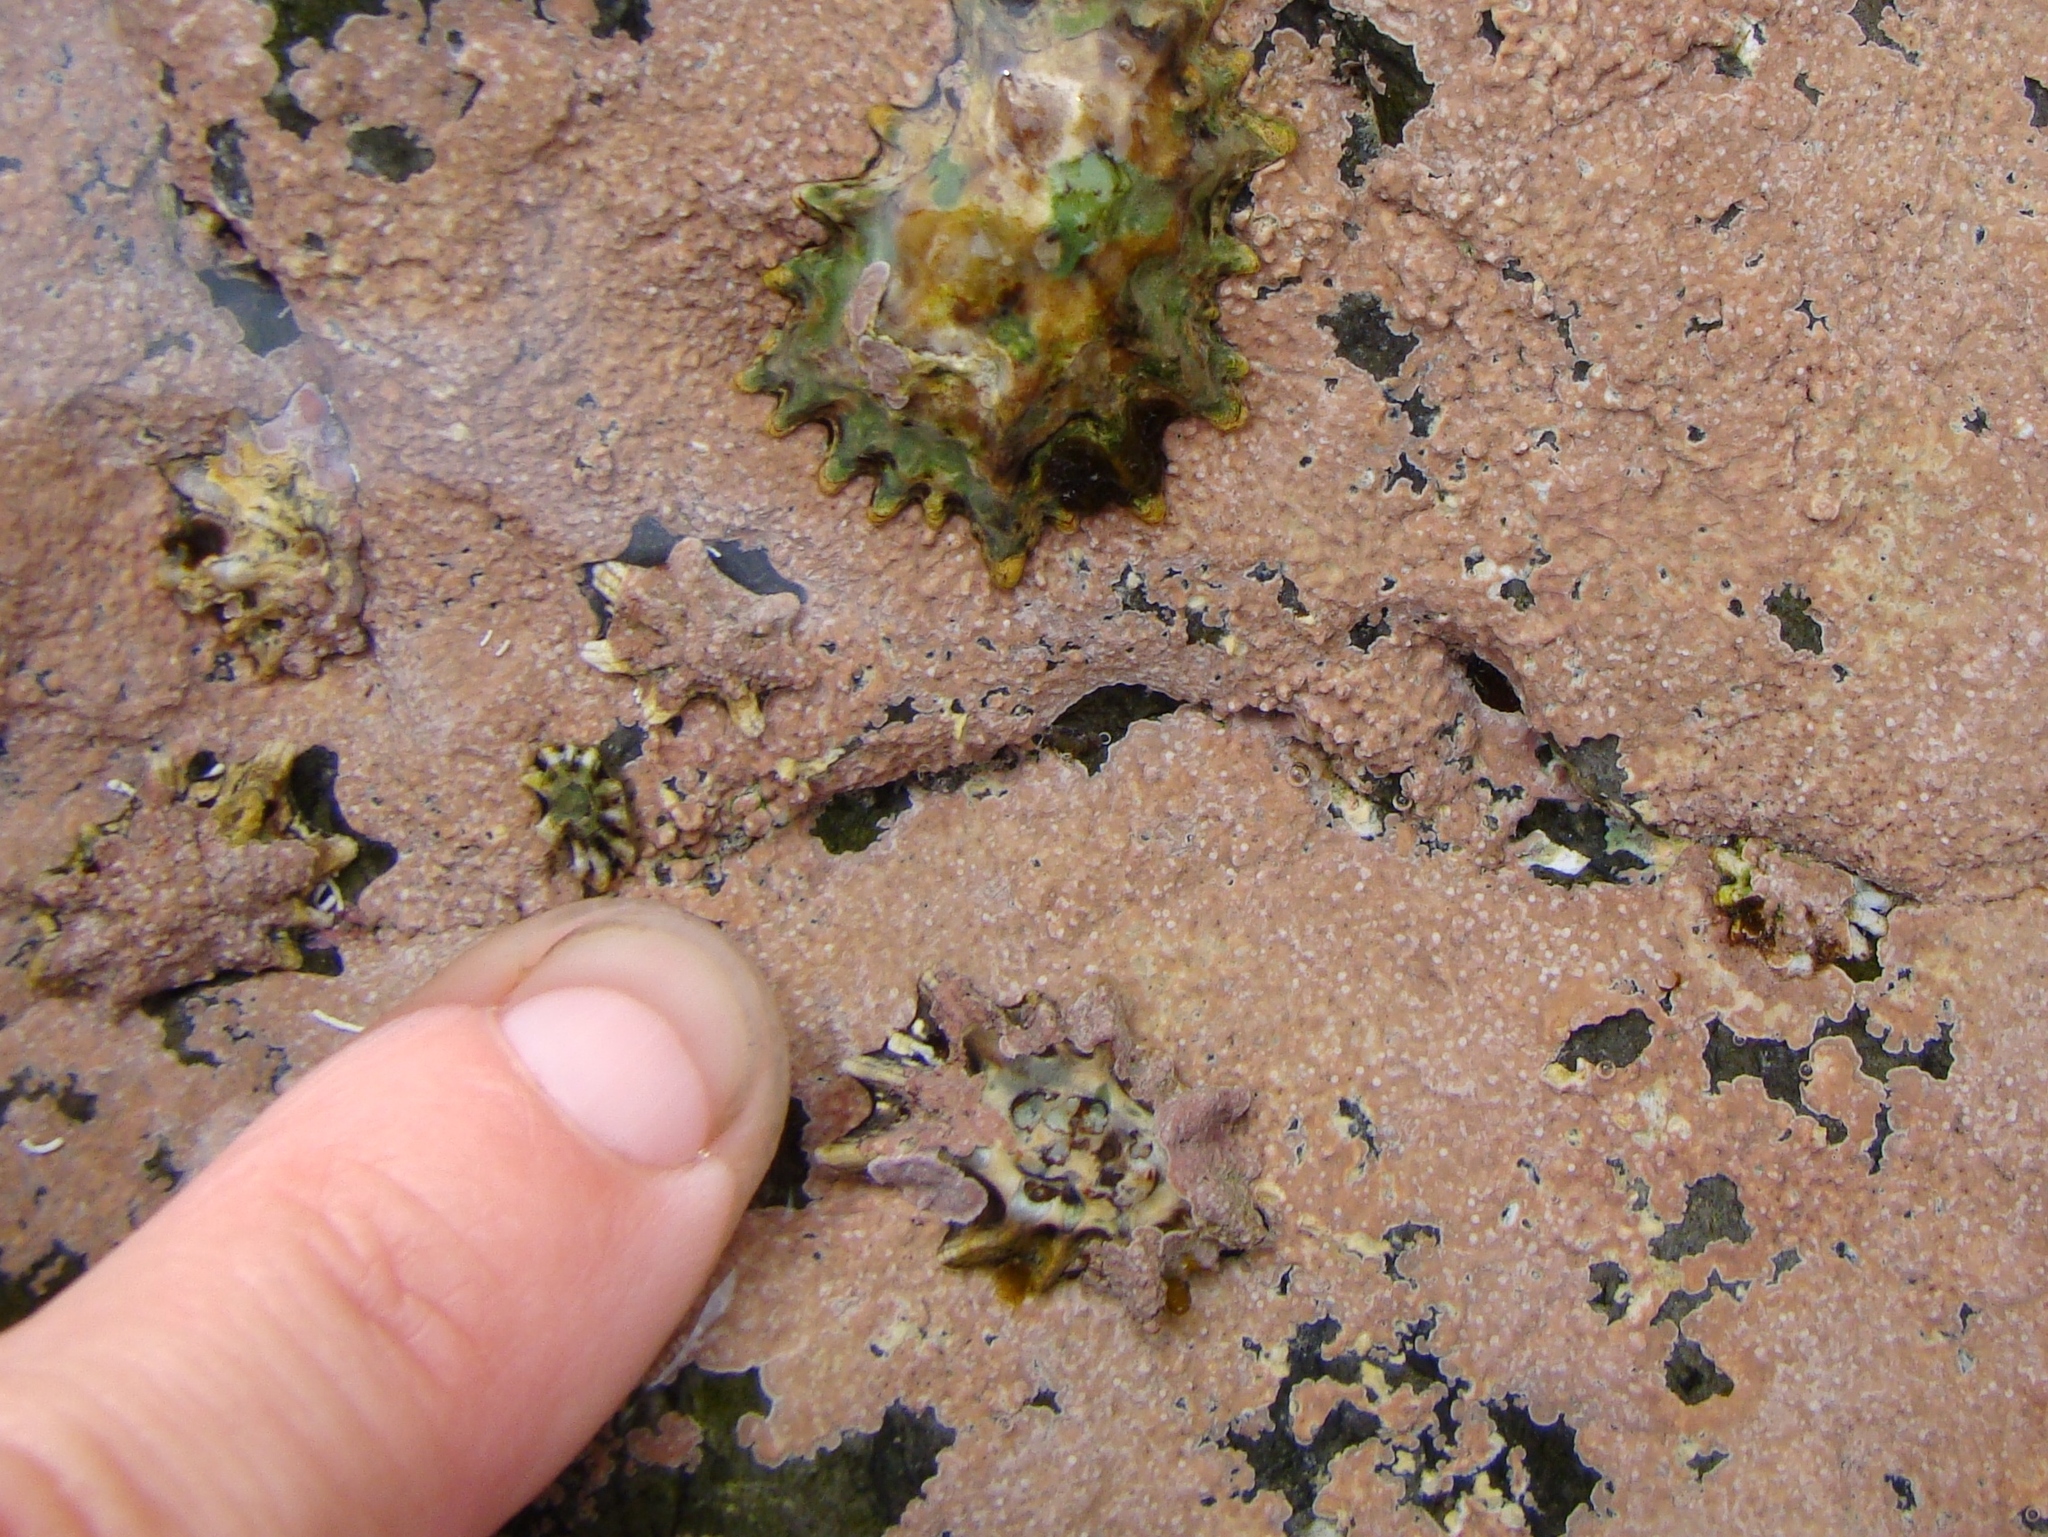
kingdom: Animalia
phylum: Mollusca
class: Gastropoda
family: Lottiidae
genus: Patelloida
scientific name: Patelloida corticata
